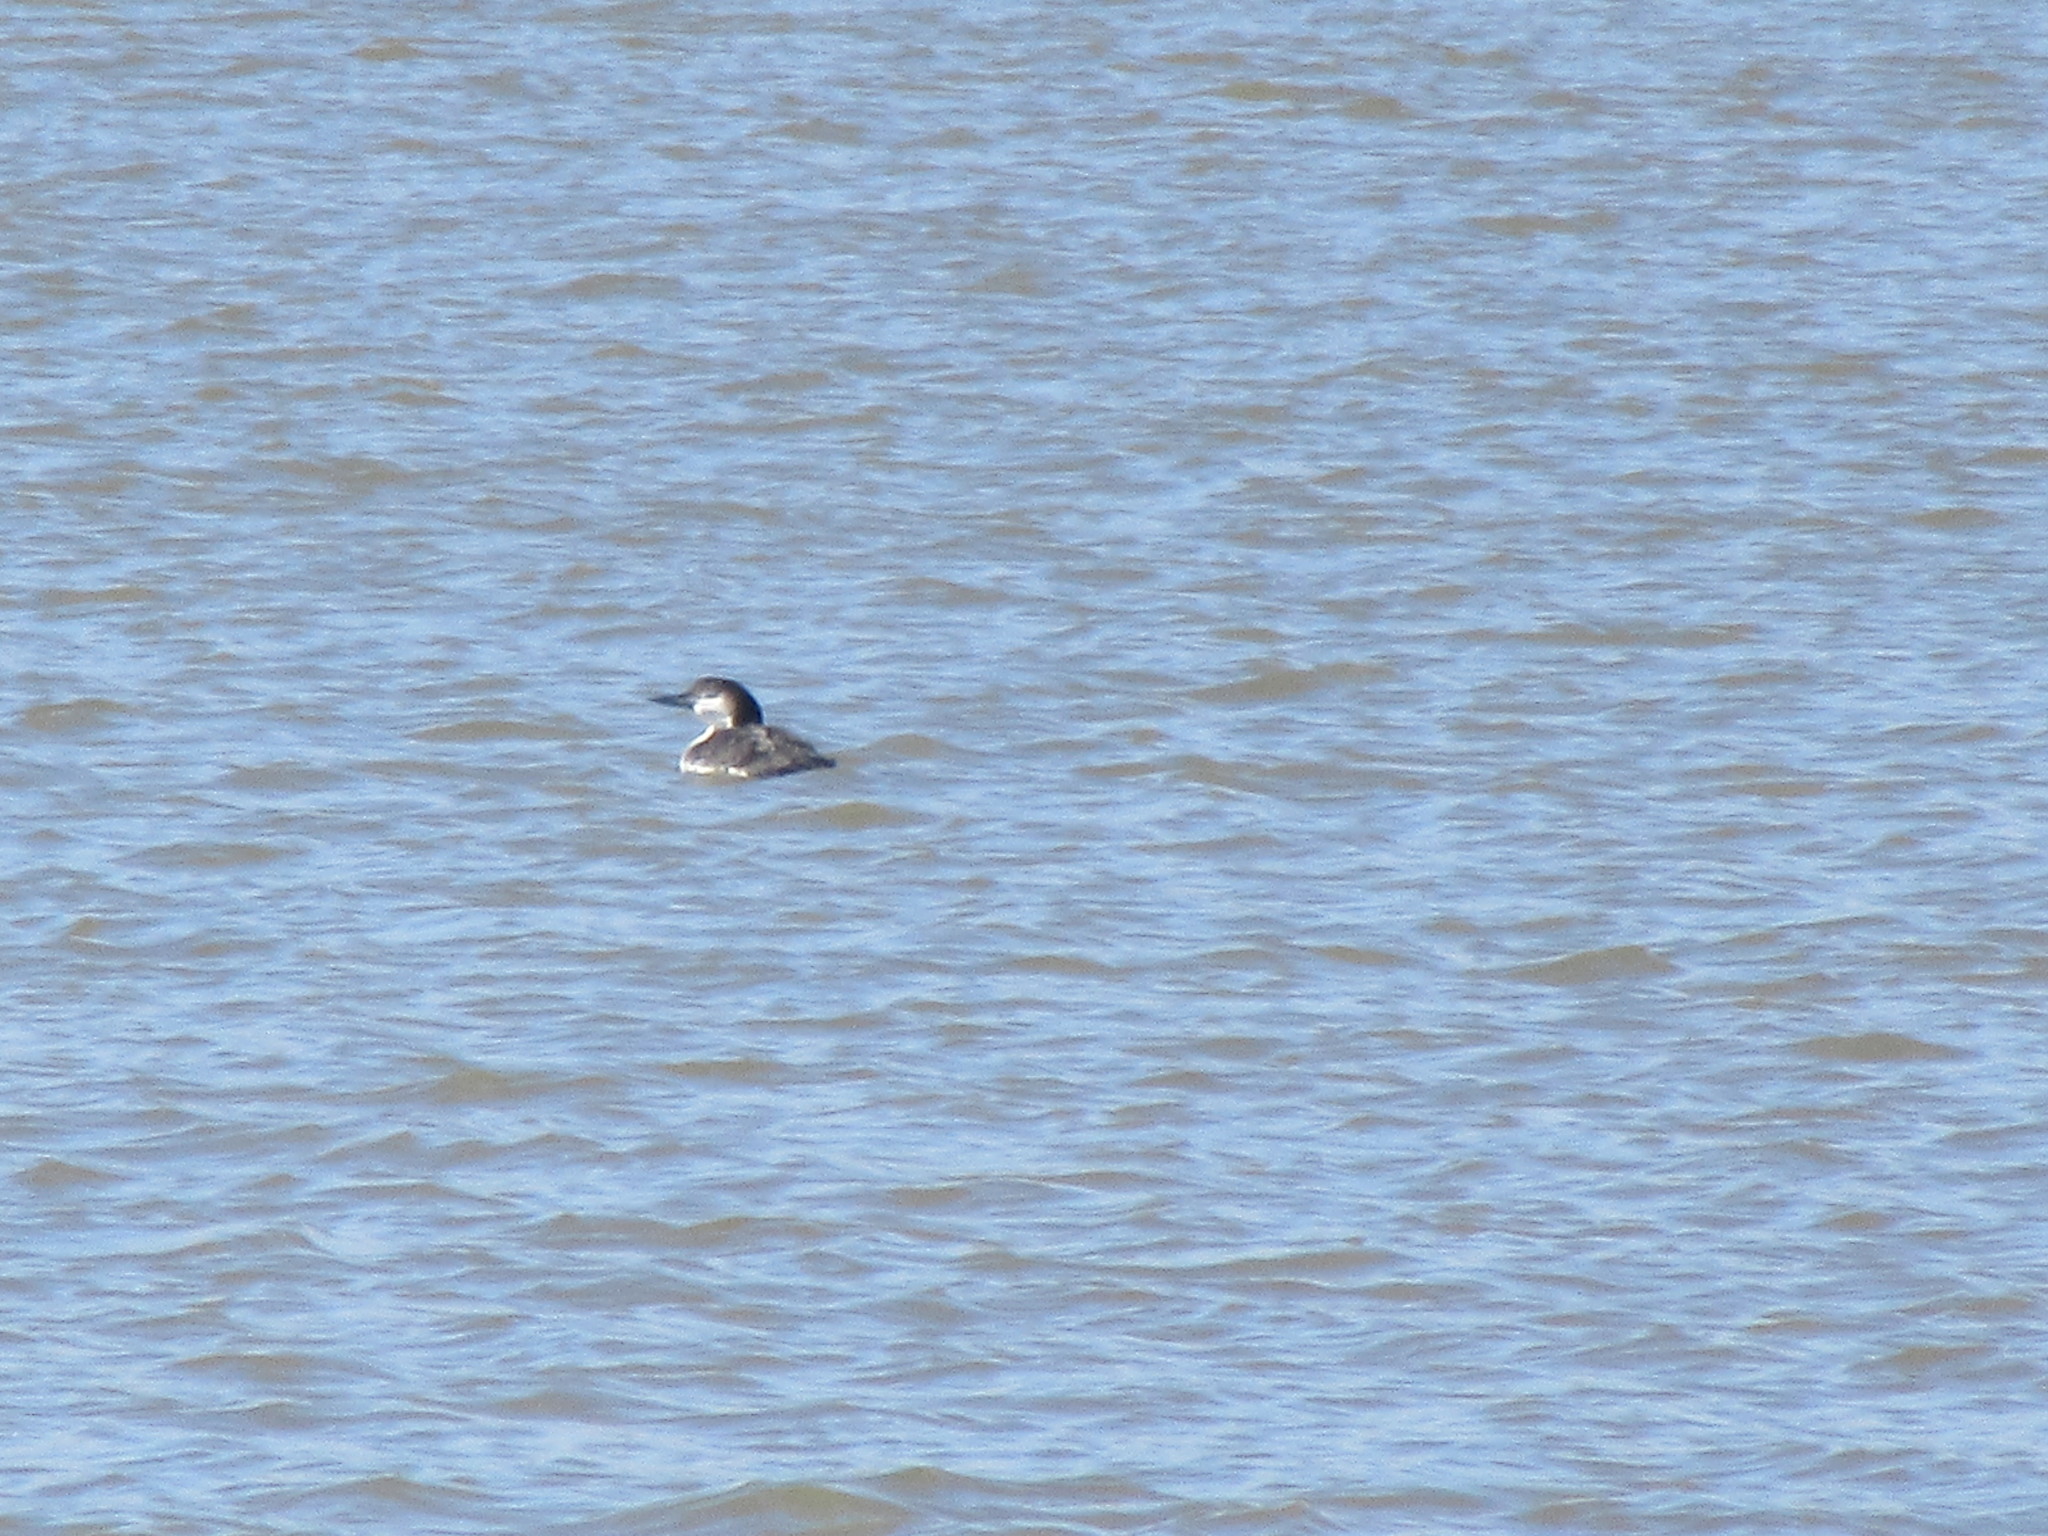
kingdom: Animalia
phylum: Chordata
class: Aves
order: Gaviiformes
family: Gaviidae
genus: Gavia
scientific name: Gavia immer
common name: Common loon
